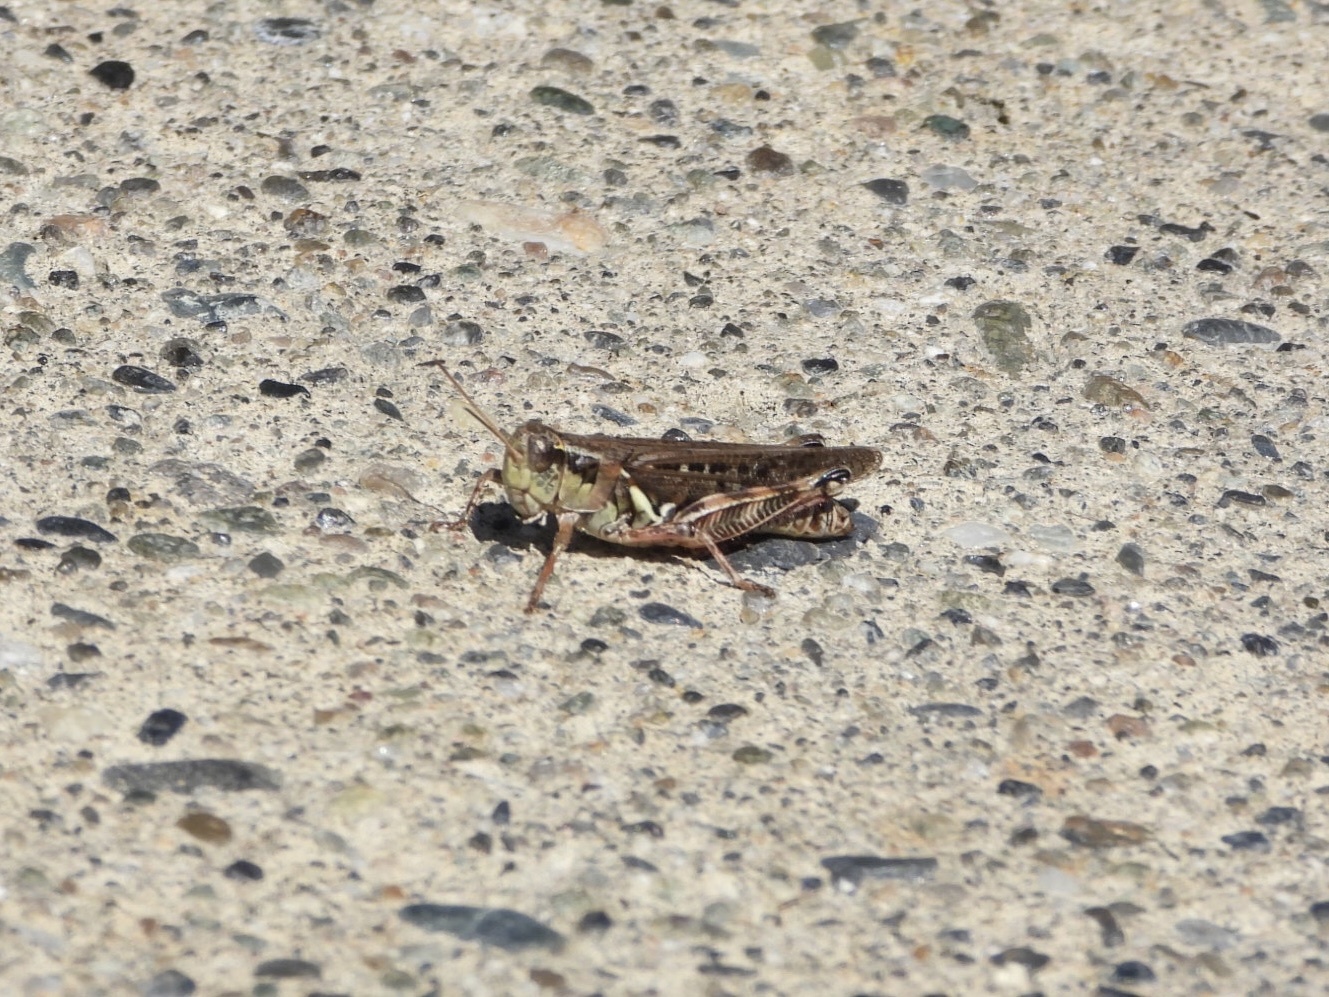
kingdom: Animalia
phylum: Arthropoda
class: Insecta
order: Orthoptera
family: Acrididae
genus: Melanoplus
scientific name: Melanoplus sanguinipes
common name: Migratory grasshopper
